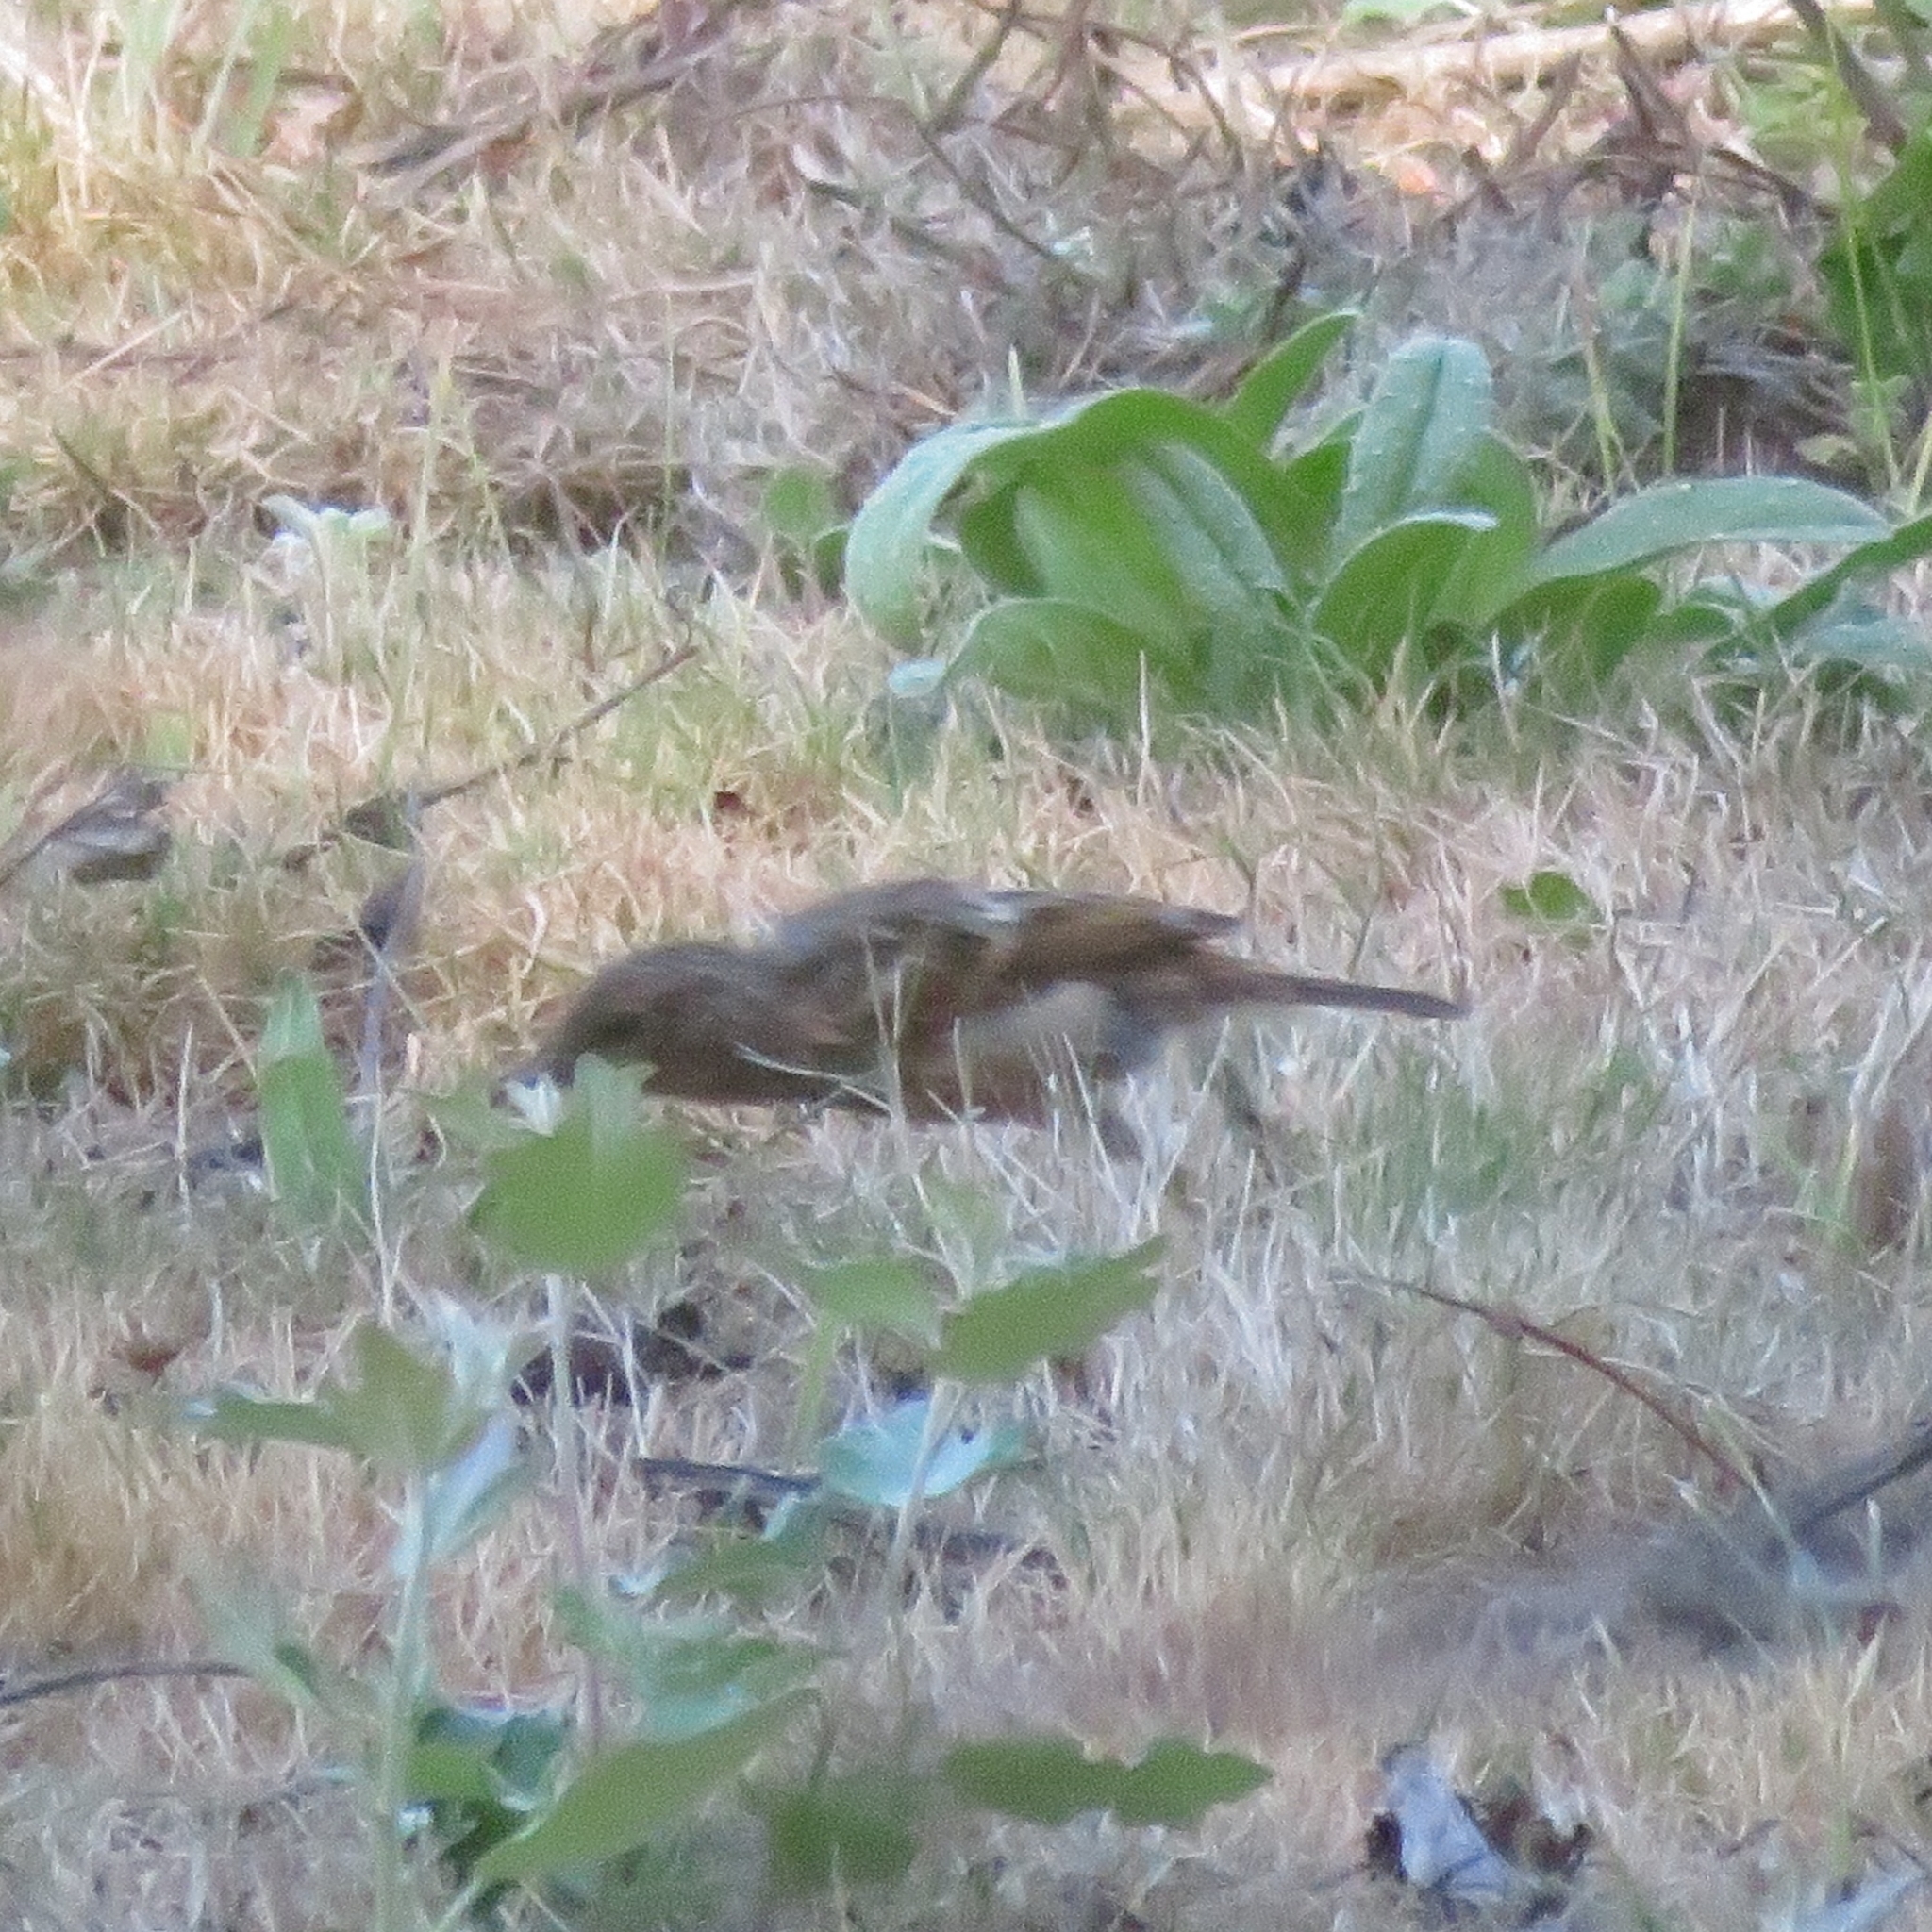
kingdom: Animalia
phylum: Chordata
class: Aves
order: Passeriformes
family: Muscicapidae
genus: Saxicola
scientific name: Saxicola rubicola
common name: European stonechat
